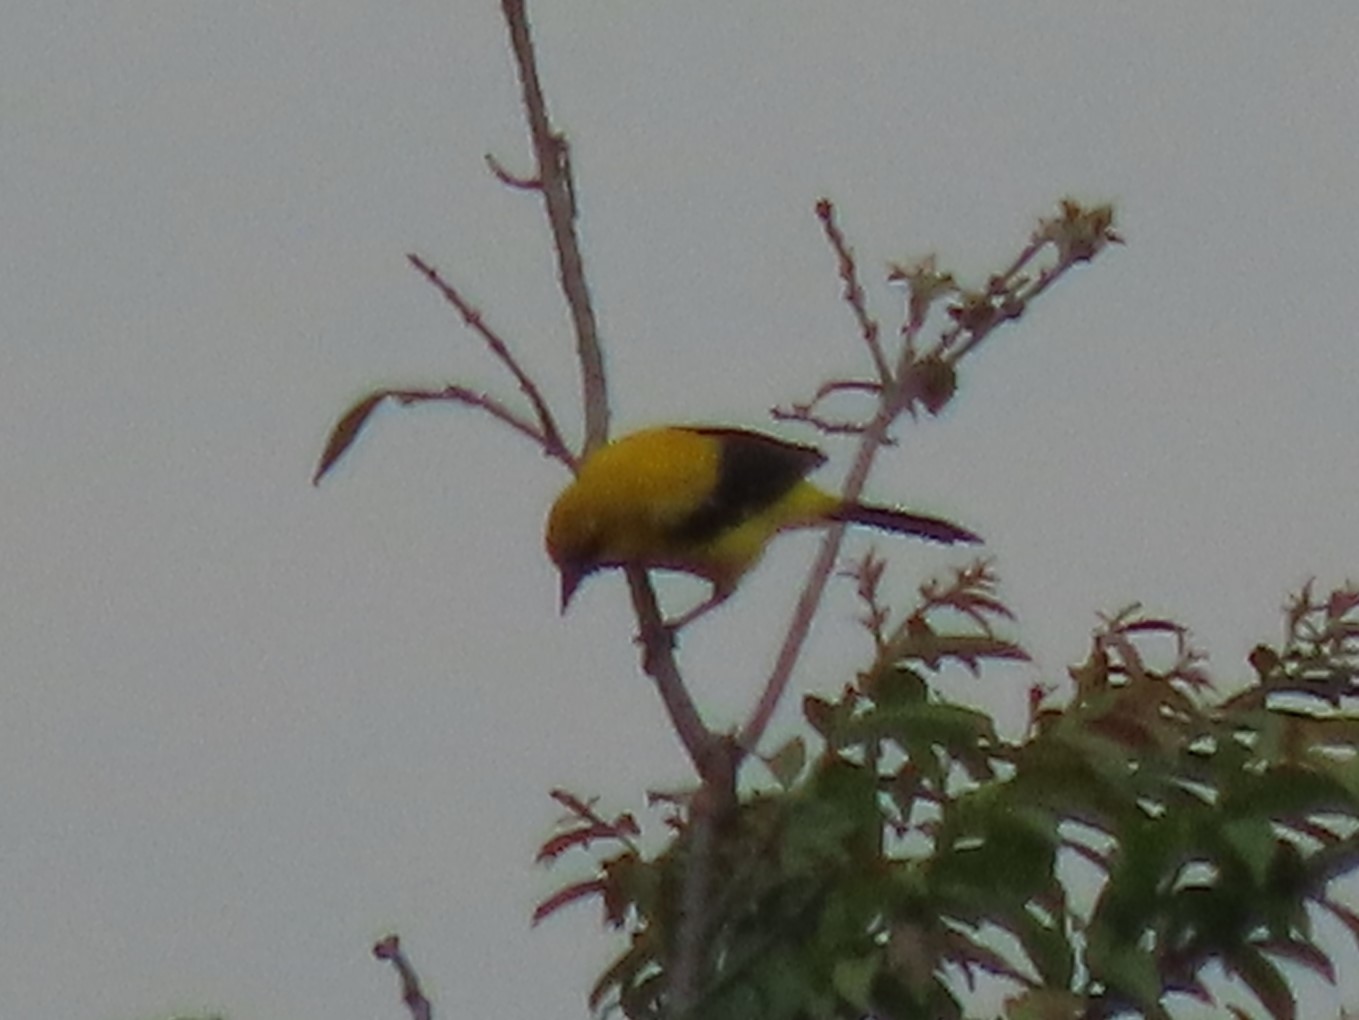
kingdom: Animalia
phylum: Chordata
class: Aves
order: Passeriformes
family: Icteridae
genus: Icterus
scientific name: Icterus nigrogularis
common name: Yellow oriole
